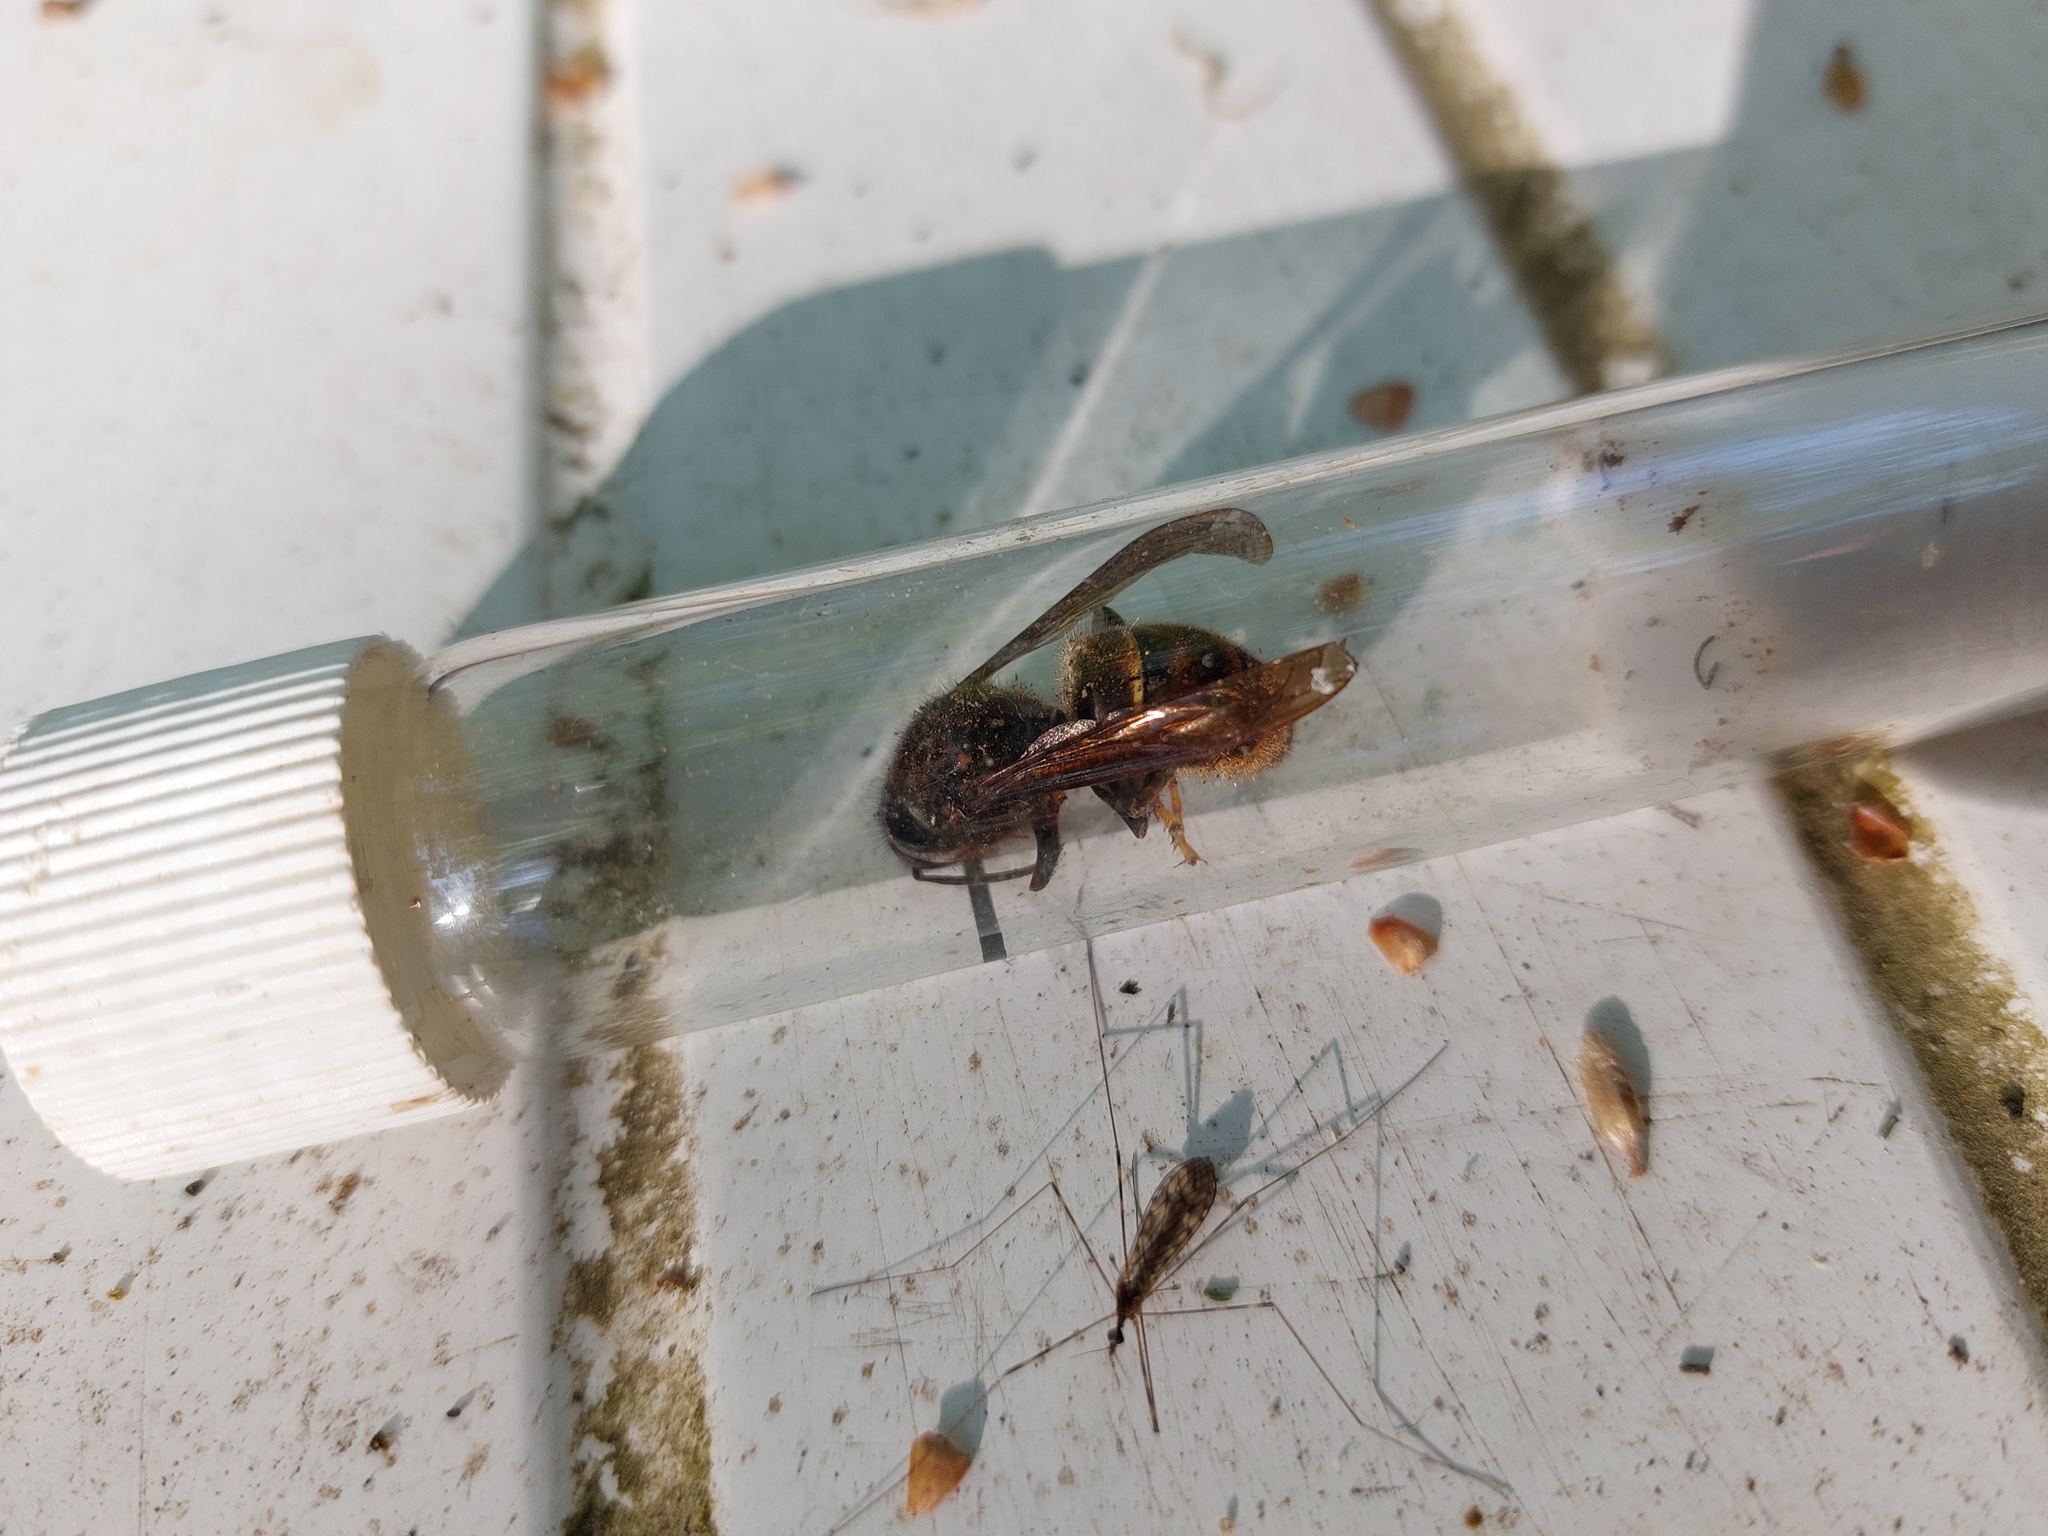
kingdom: Animalia
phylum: Arthropoda
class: Insecta
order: Hymenoptera
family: Vespidae
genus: Vespa
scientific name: Vespa velutina
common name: Asian hornet
